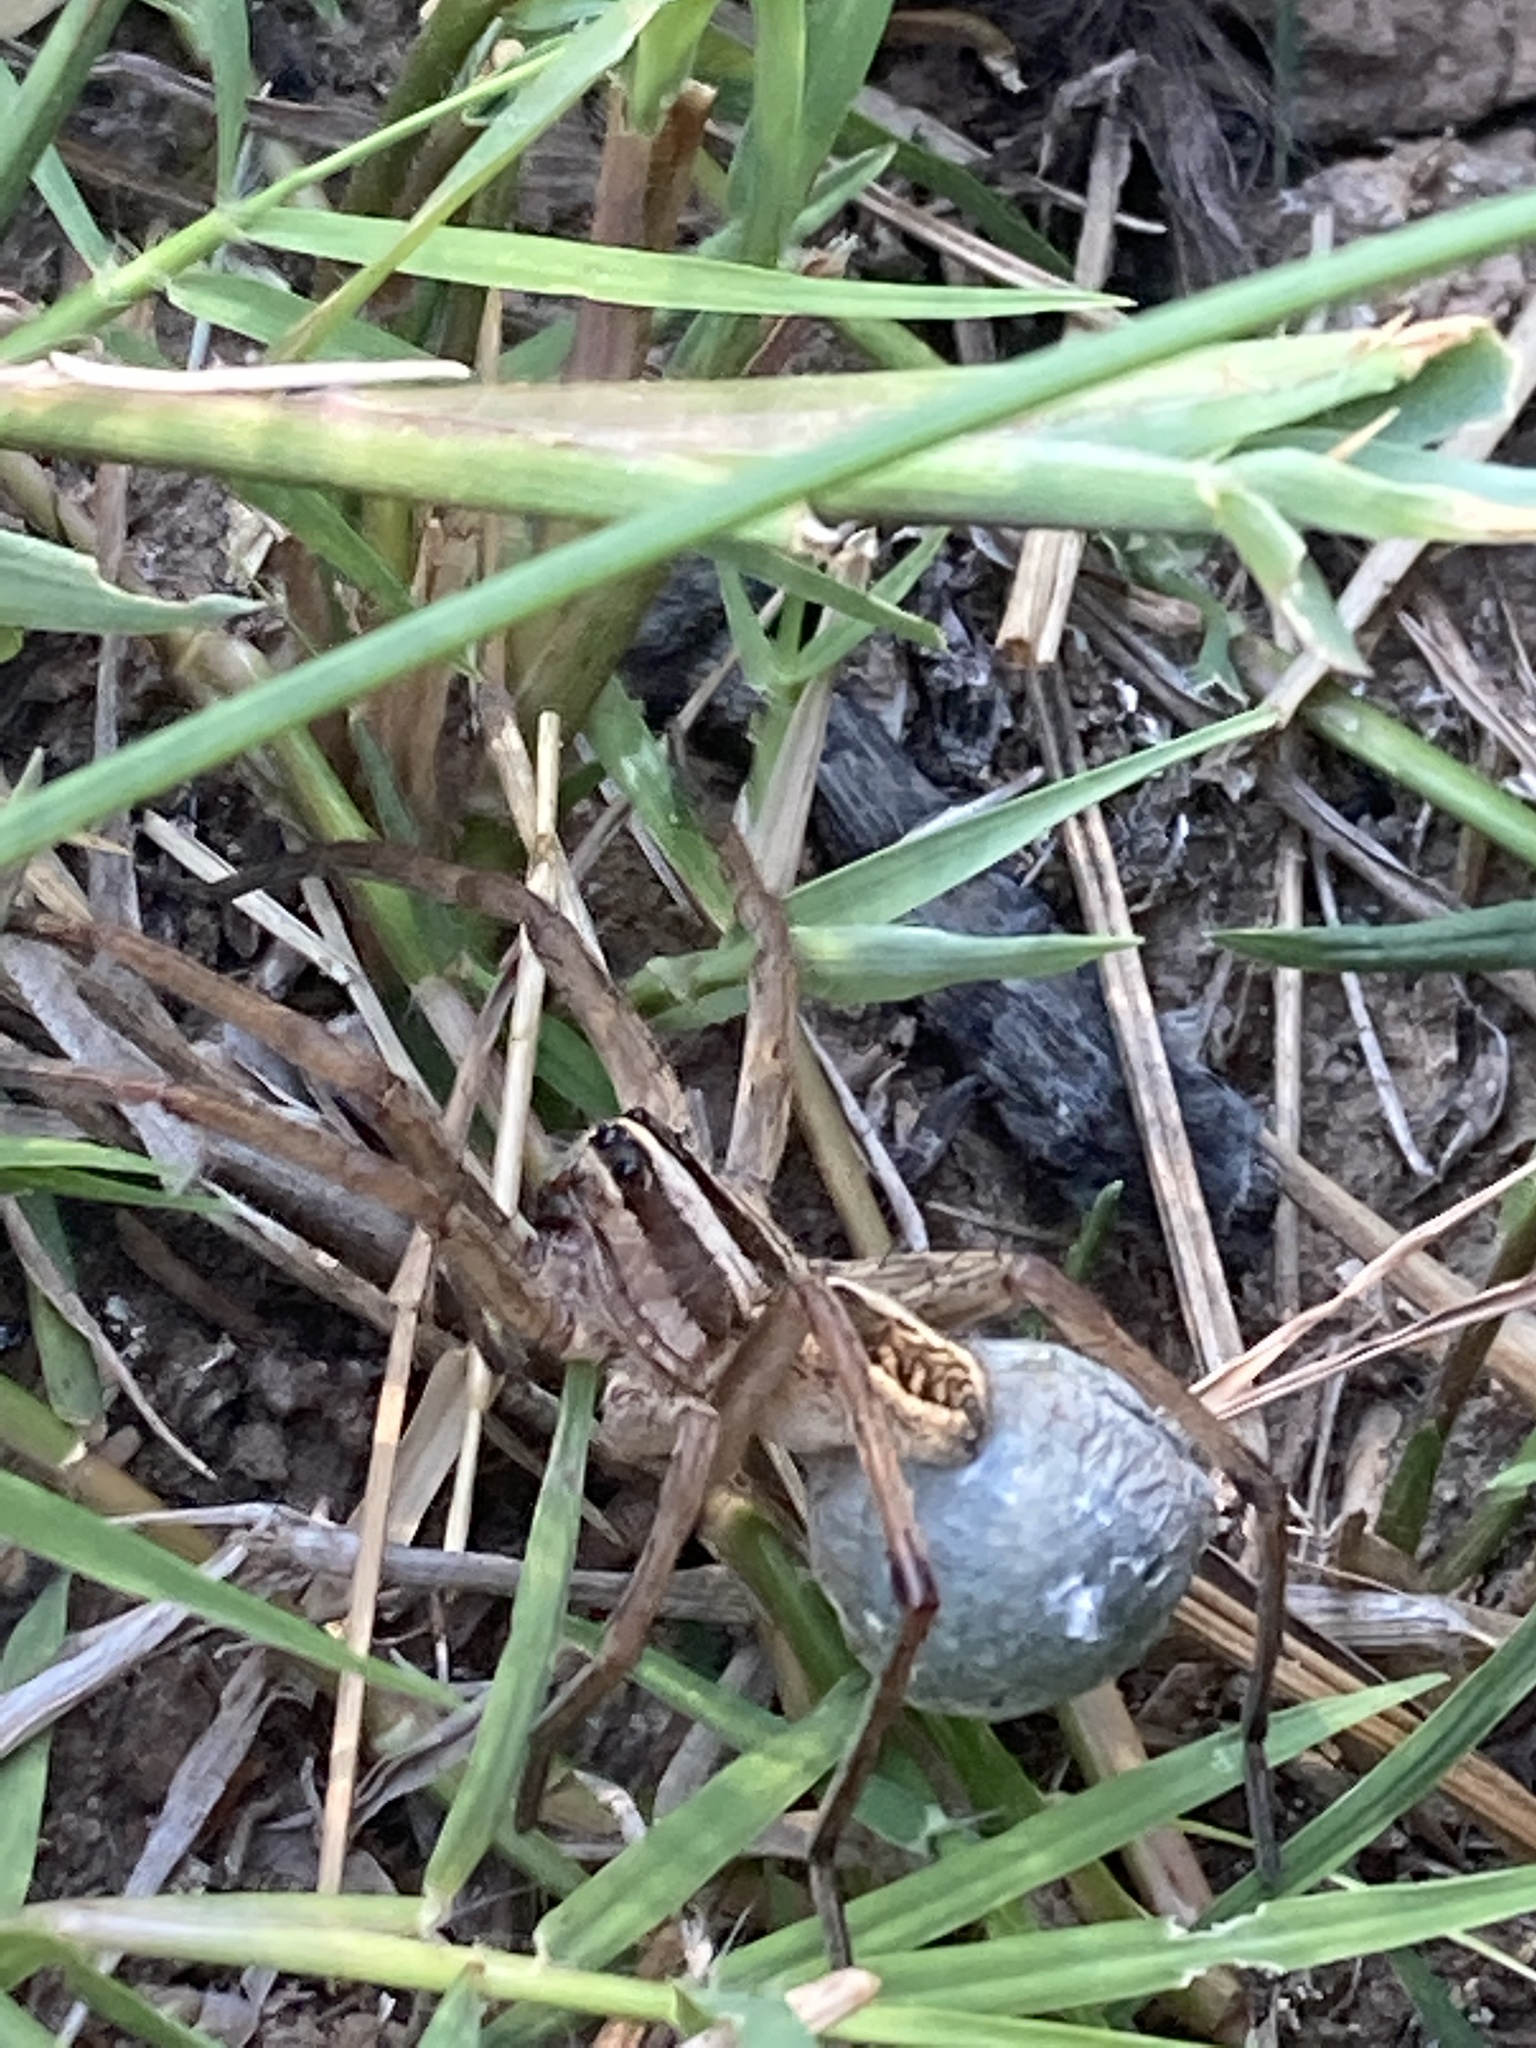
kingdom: Animalia
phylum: Arthropoda
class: Arachnida
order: Araneae
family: Lycosidae
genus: Rabidosa
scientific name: Rabidosa rabida
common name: Rabid wolf spider
